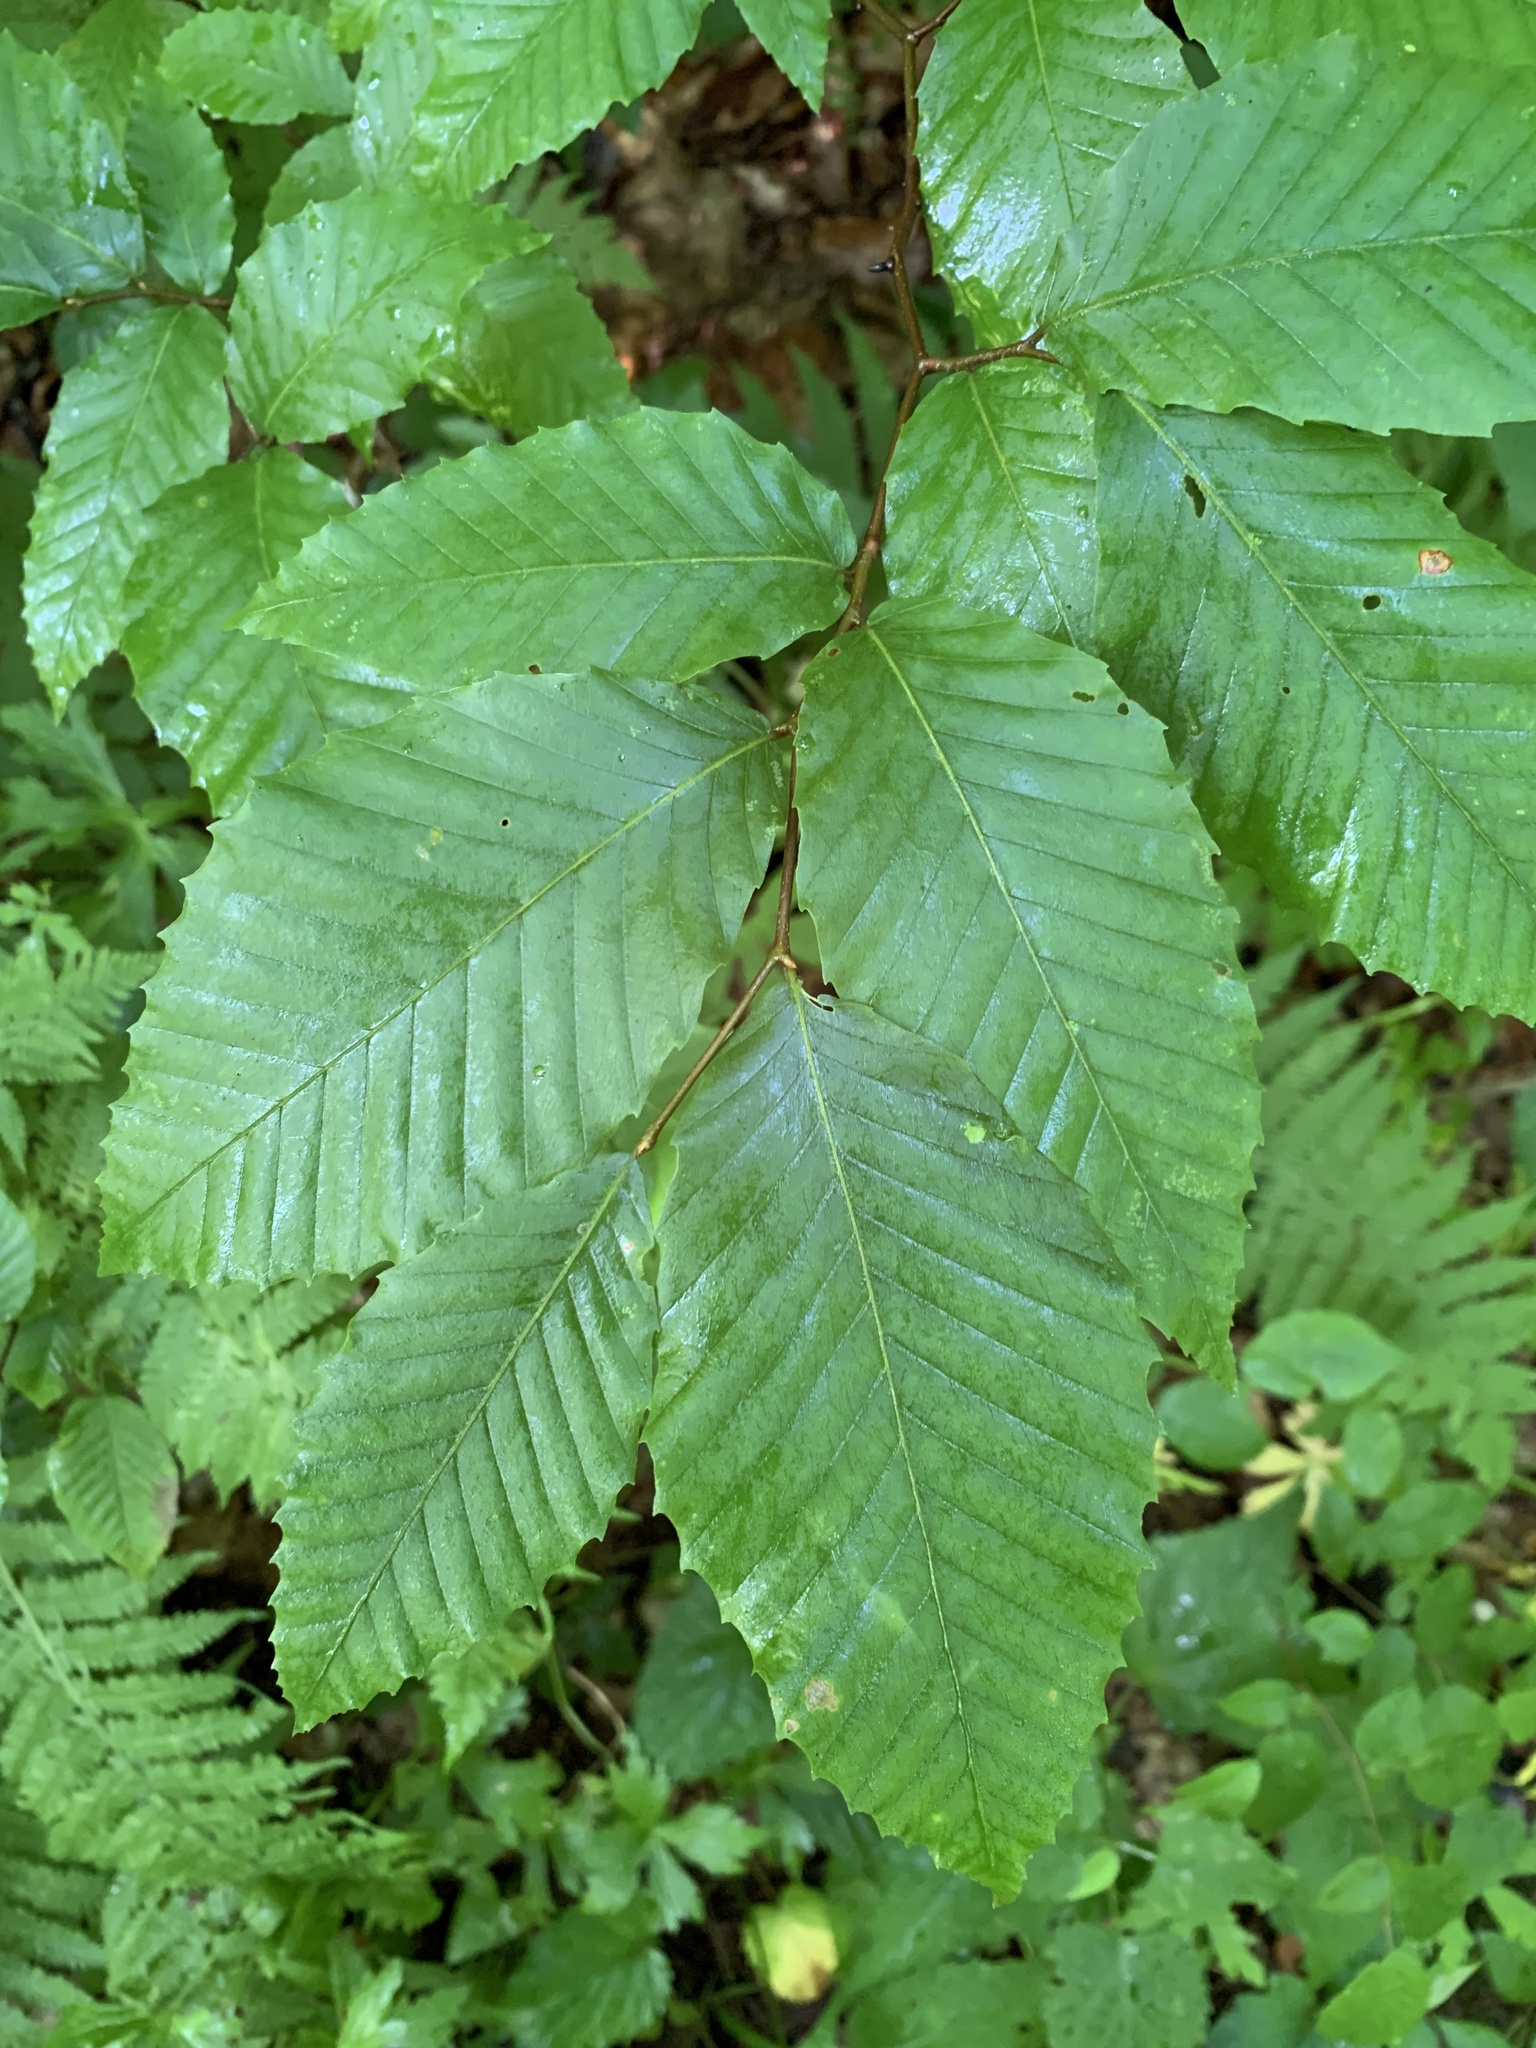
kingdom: Plantae
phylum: Tracheophyta
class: Magnoliopsida
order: Fagales
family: Fagaceae
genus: Fagus
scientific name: Fagus grandifolia
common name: American beech
